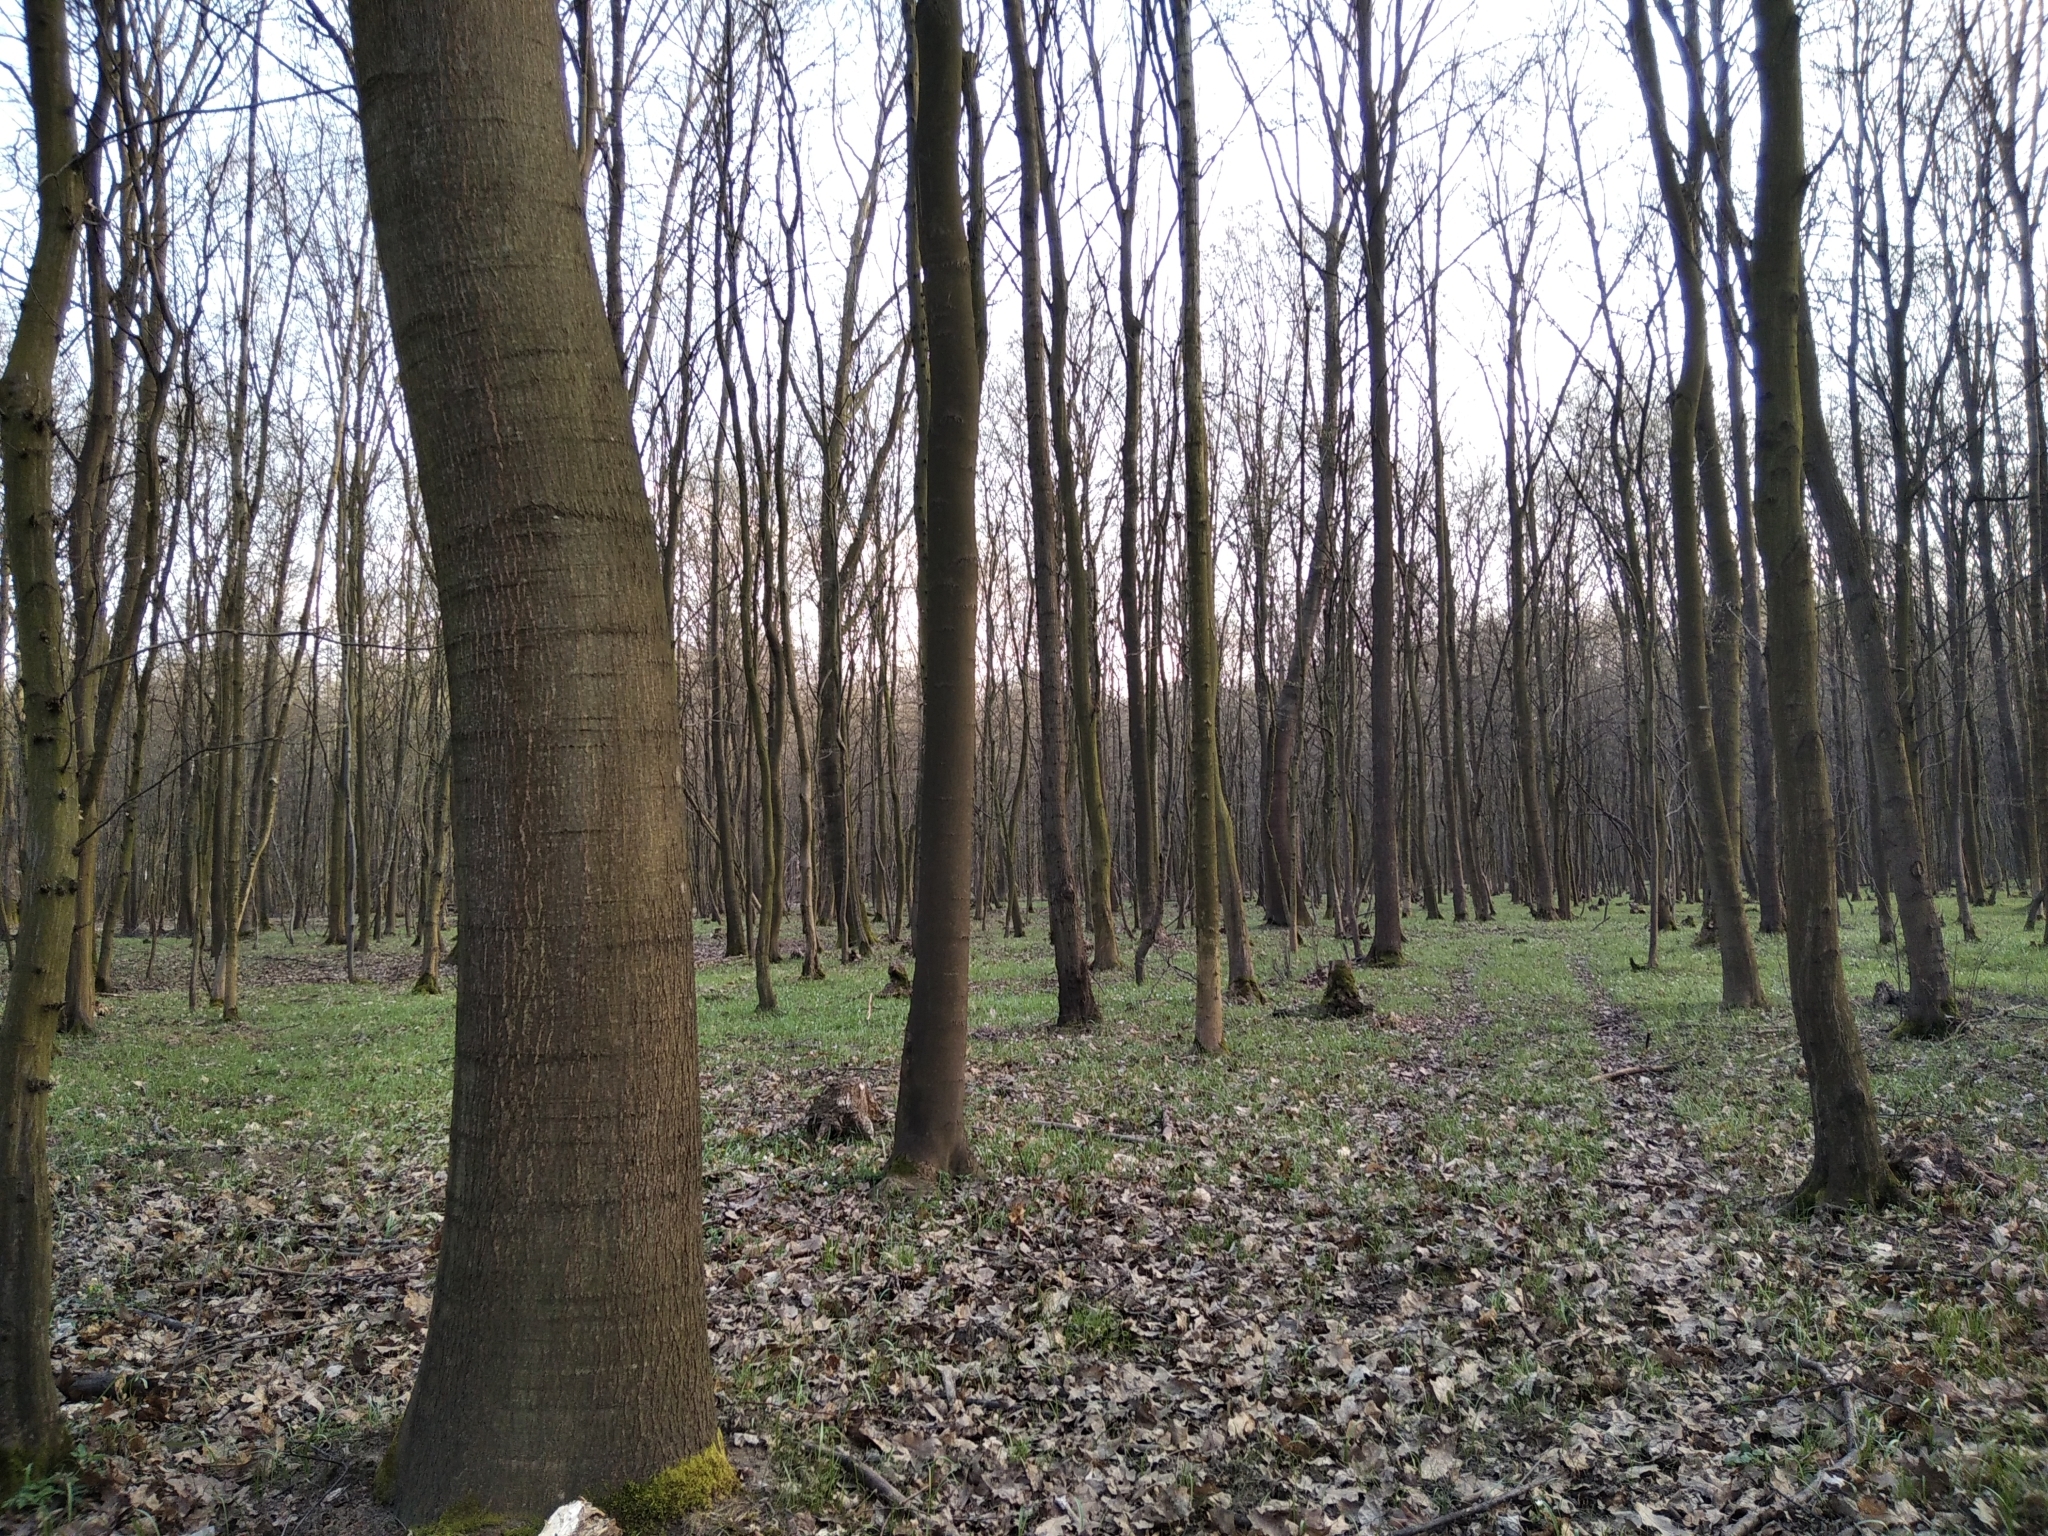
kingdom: Plantae
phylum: Tracheophyta
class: Magnoliopsida
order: Fagales
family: Fagaceae
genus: Quercus
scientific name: Quercus rubra
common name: Red oak
